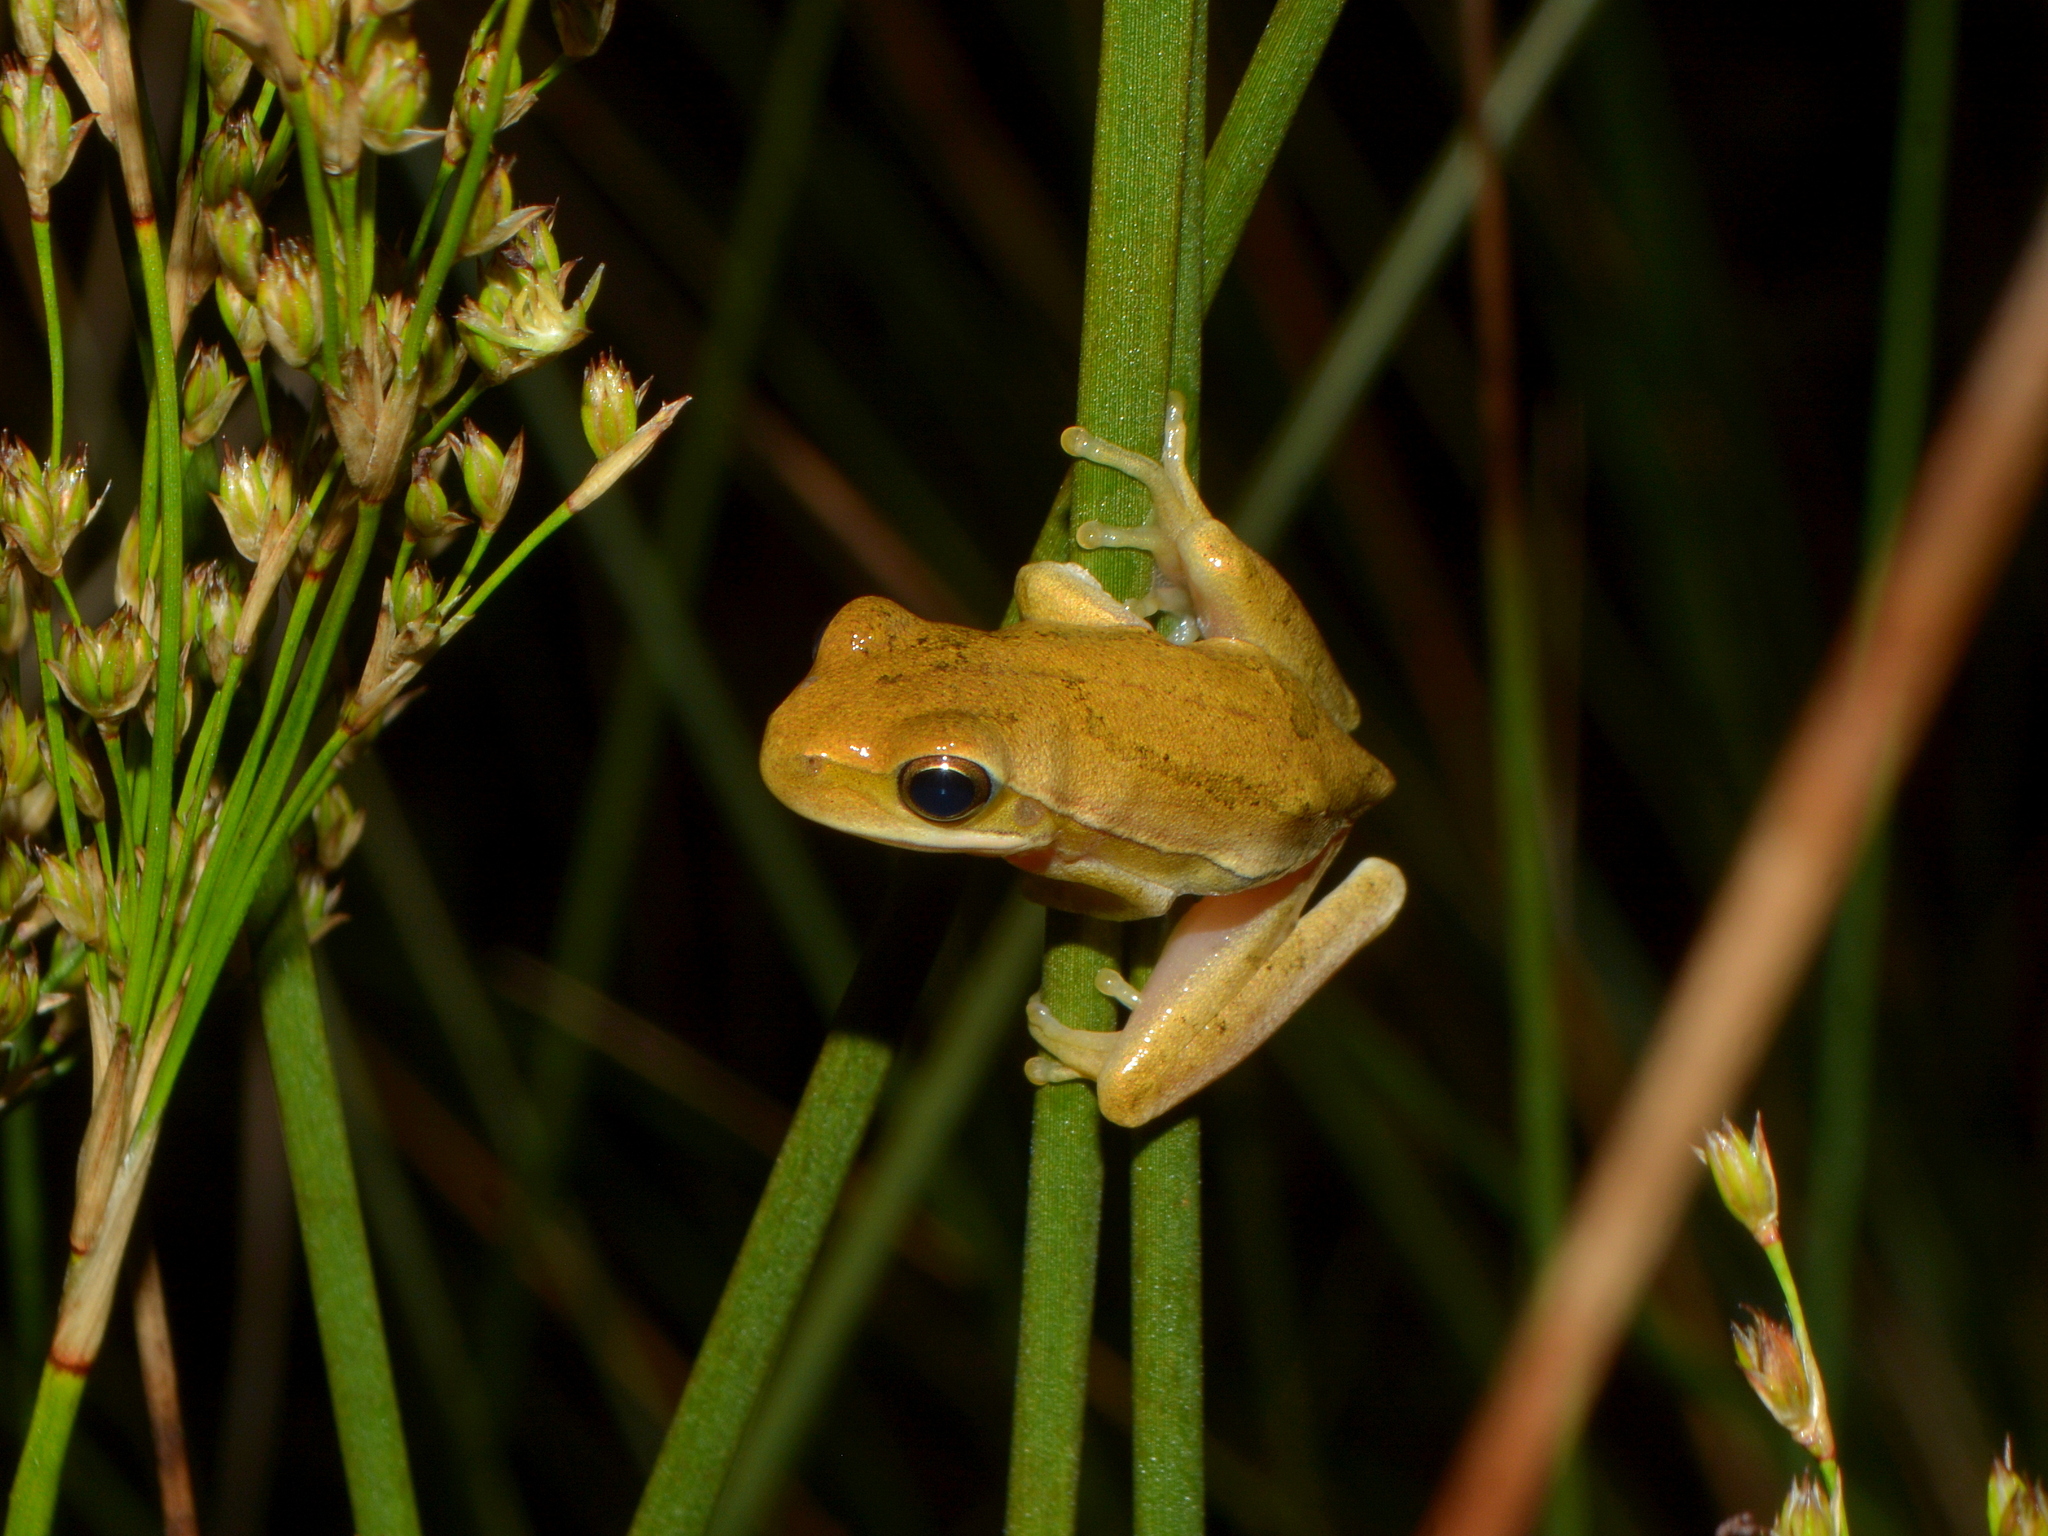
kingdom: Animalia
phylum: Chordata
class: Amphibia
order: Anura
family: Hylidae
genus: Boana
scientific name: Boana pulchella
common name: Montevideo treefrog
